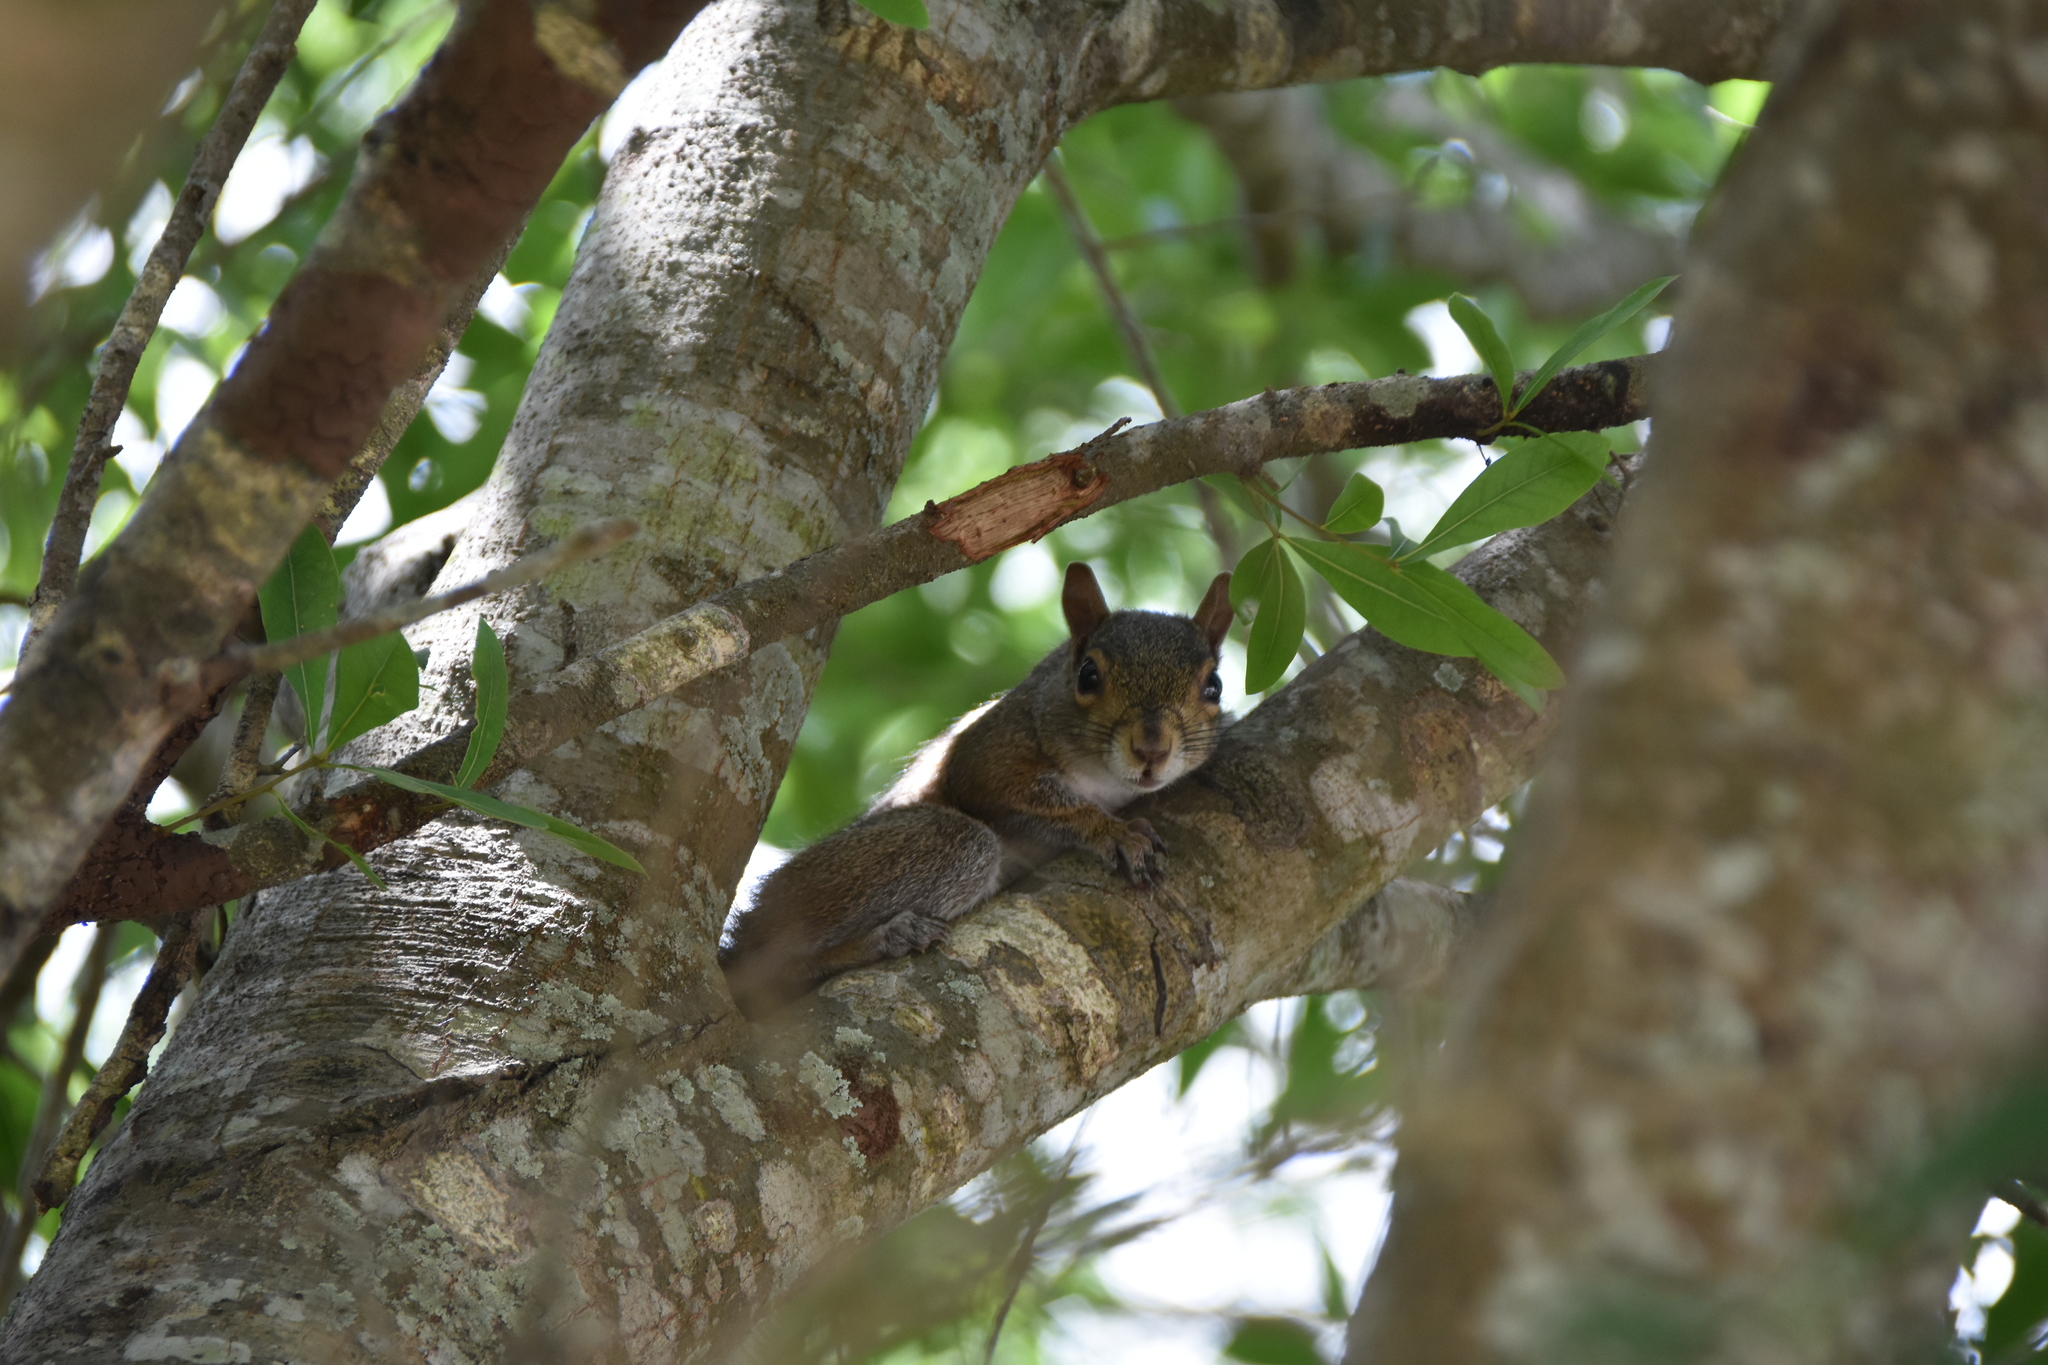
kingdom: Animalia
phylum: Chordata
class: Mammalia
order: Rodentia
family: Sciuridae
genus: Sciurus
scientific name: Sciurus carolinensis
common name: Eastern gray squirrel
